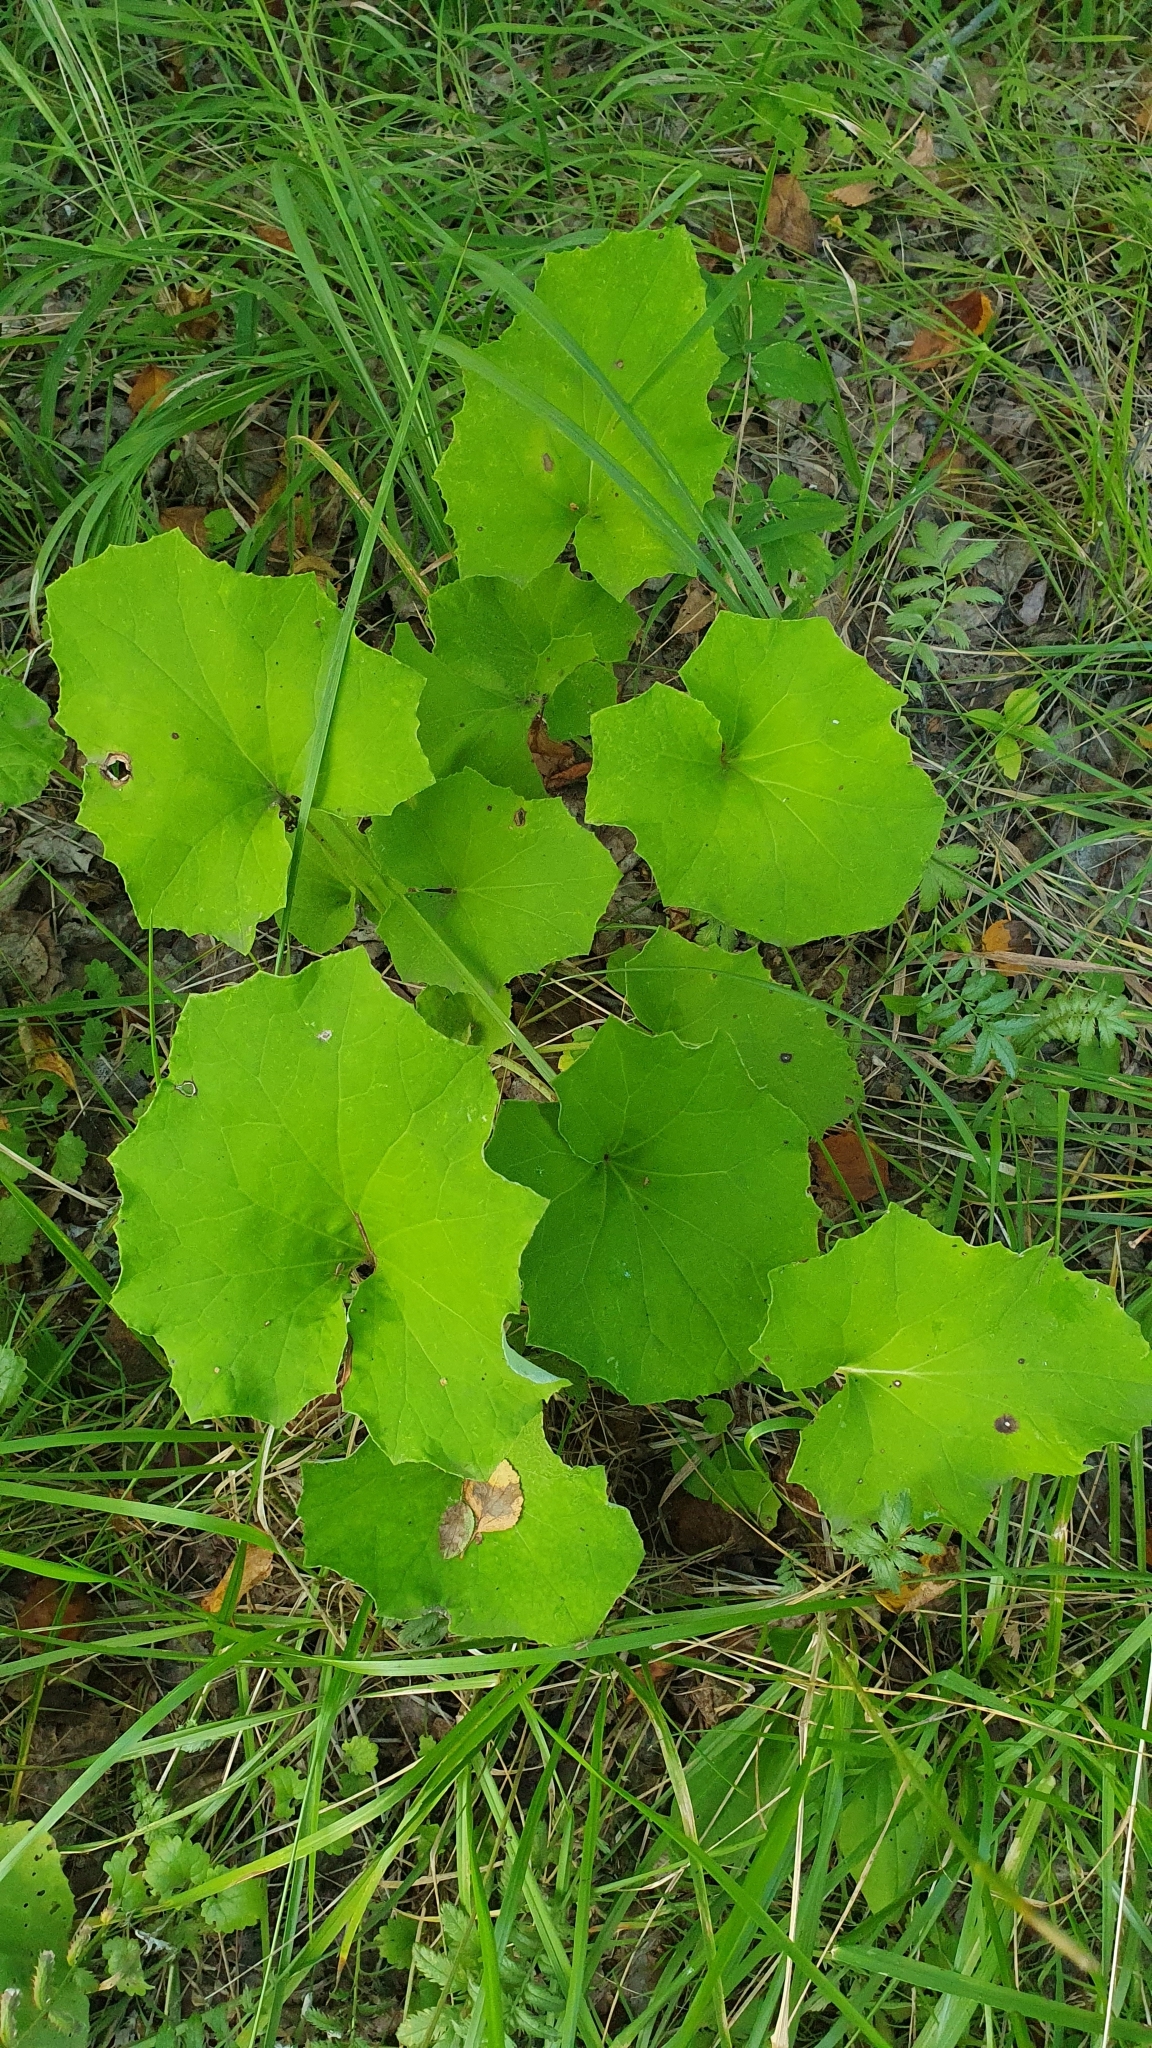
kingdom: Plantae
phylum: Tracheophyta
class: Magnoliopsida
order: Asterales
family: Asteraceae
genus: Tussilago
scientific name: Tussilago farfara
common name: Coltsfoot
